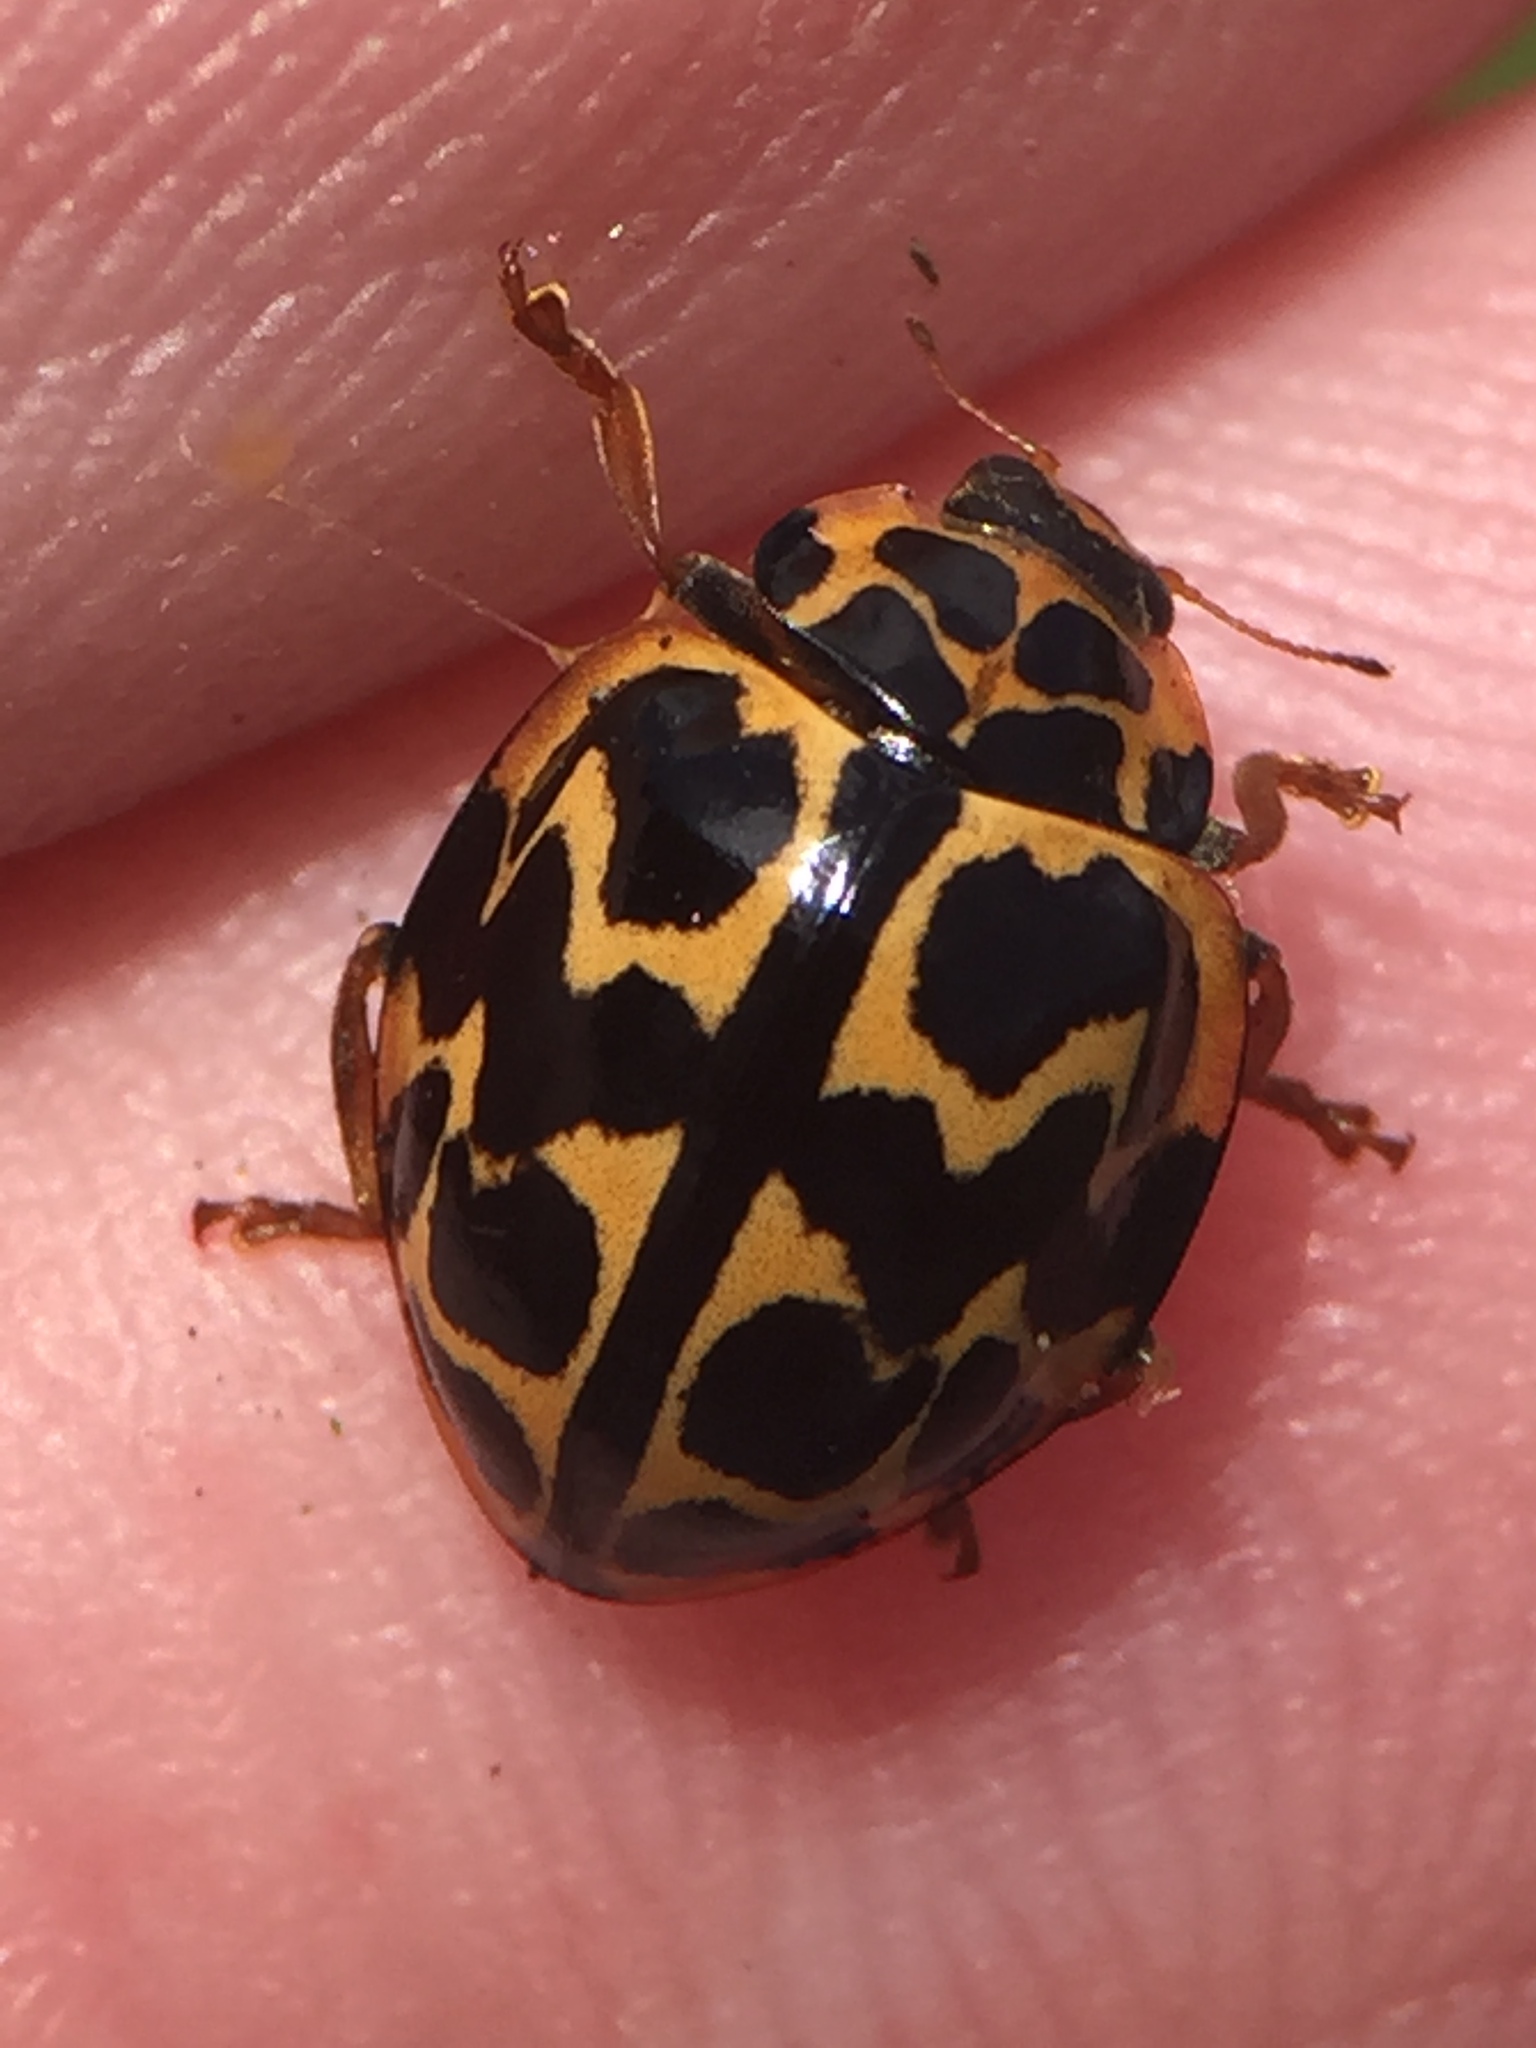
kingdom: Animalia
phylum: Arthropoda
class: Insecta
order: Coleoptera
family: Coccinellidae
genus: Cleobora
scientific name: Cleobora
